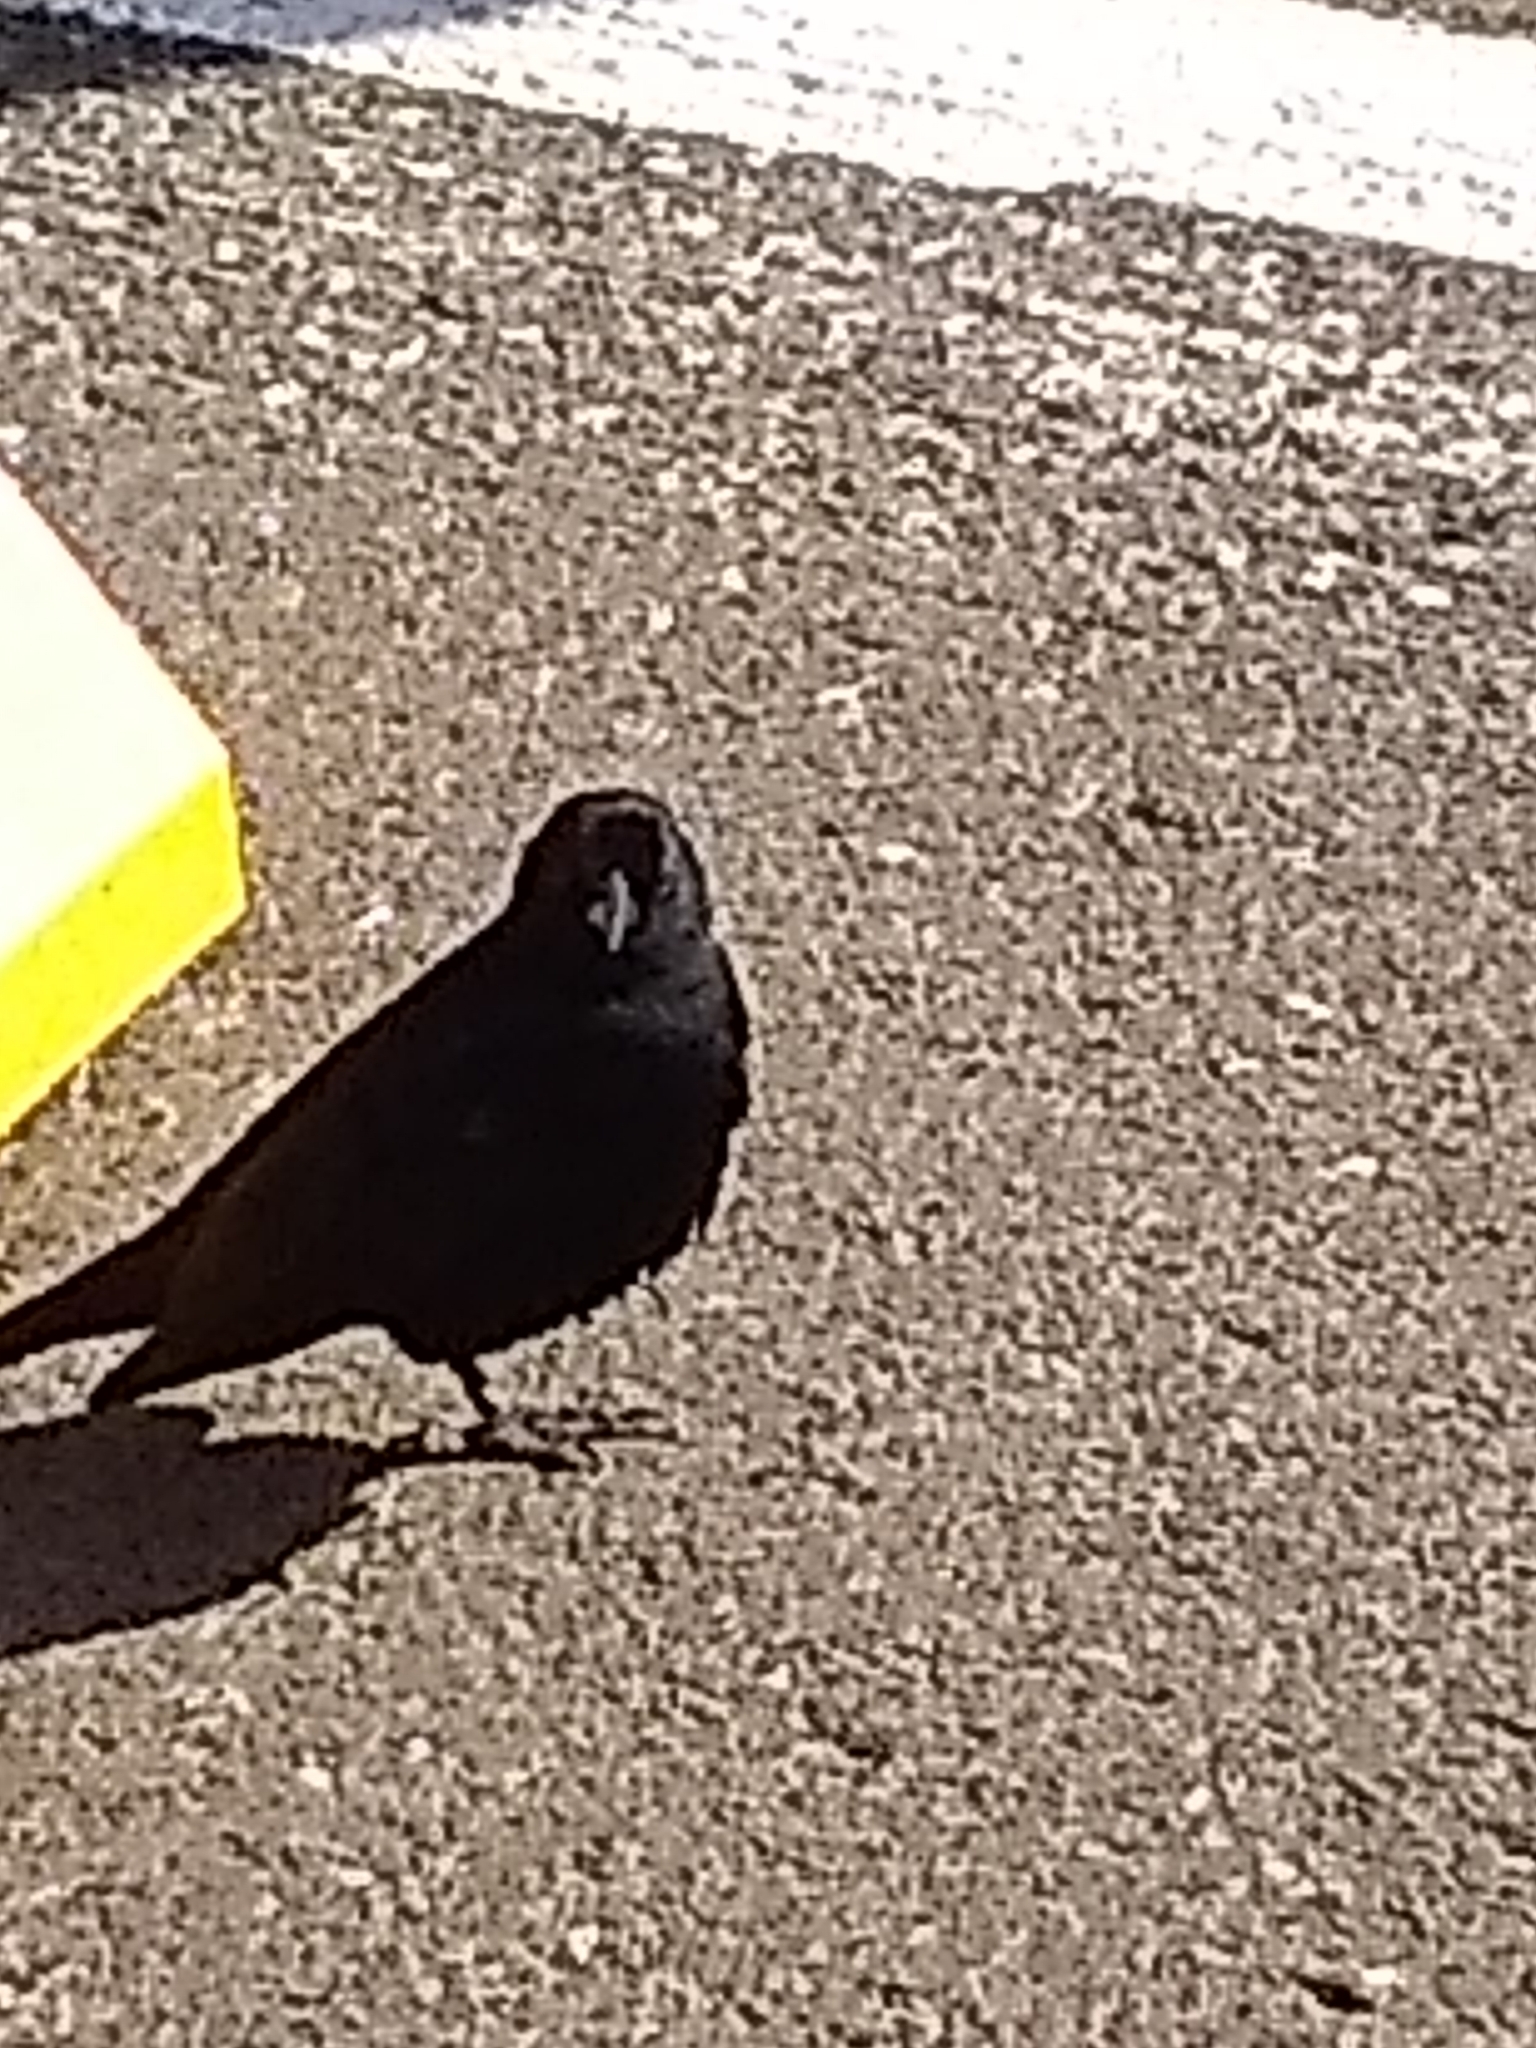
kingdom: Animalia
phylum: Chordata
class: Aves
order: Passeriformes
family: Icteridae
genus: Euphagus
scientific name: Euphagus cyanocephalus
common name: Brewer's blackbird
